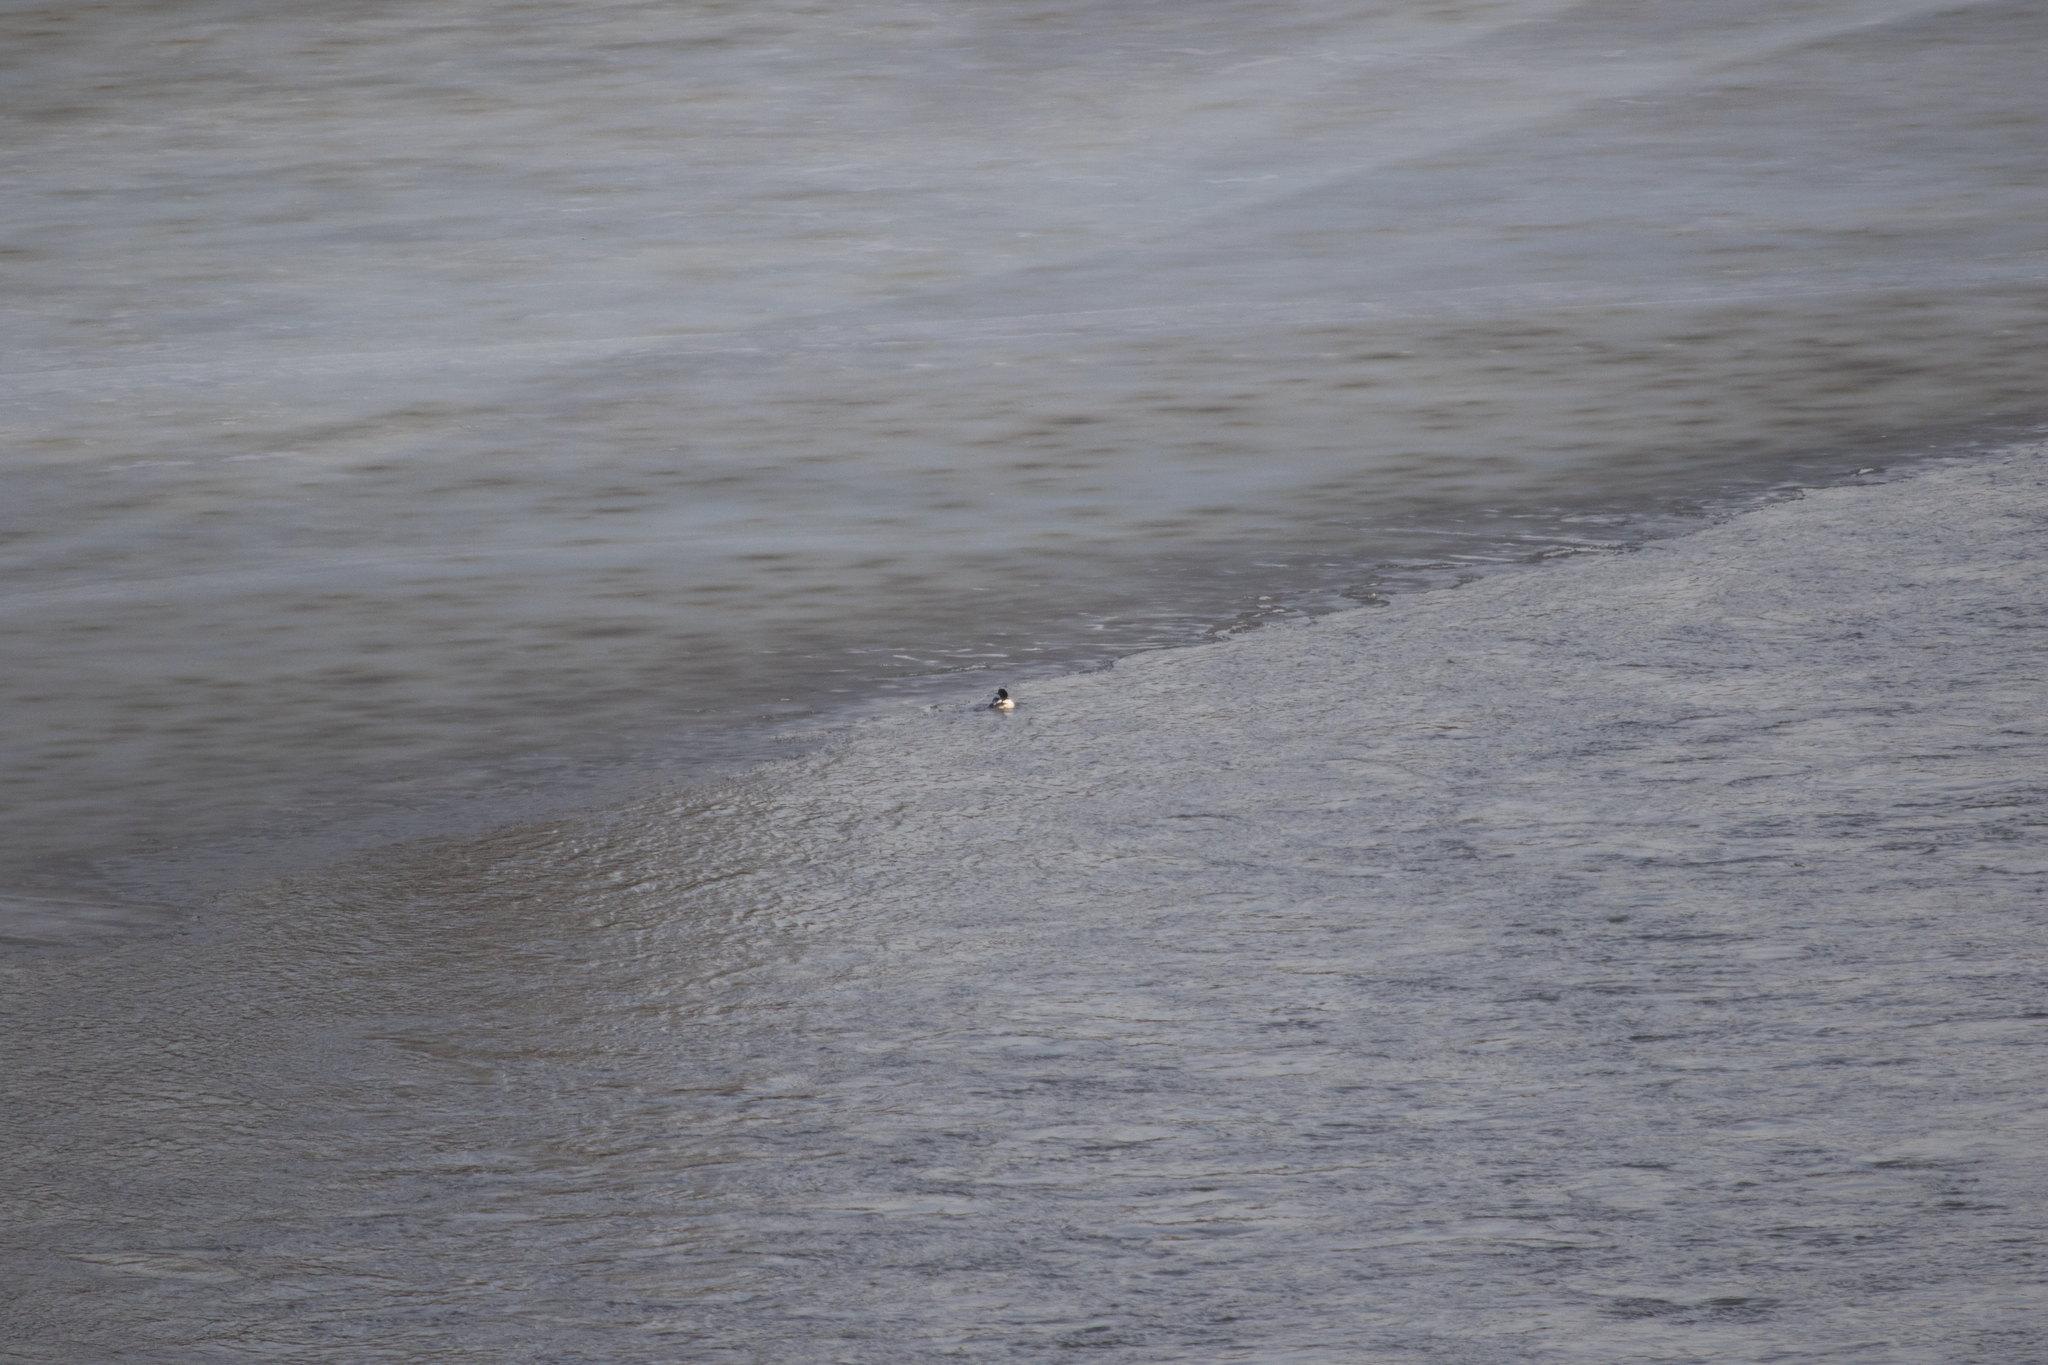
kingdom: Animalia
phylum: Chordata
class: Aves
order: Anseriformes
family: Anatidae
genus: Mergus
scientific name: Mergus merganser
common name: Common merganser
